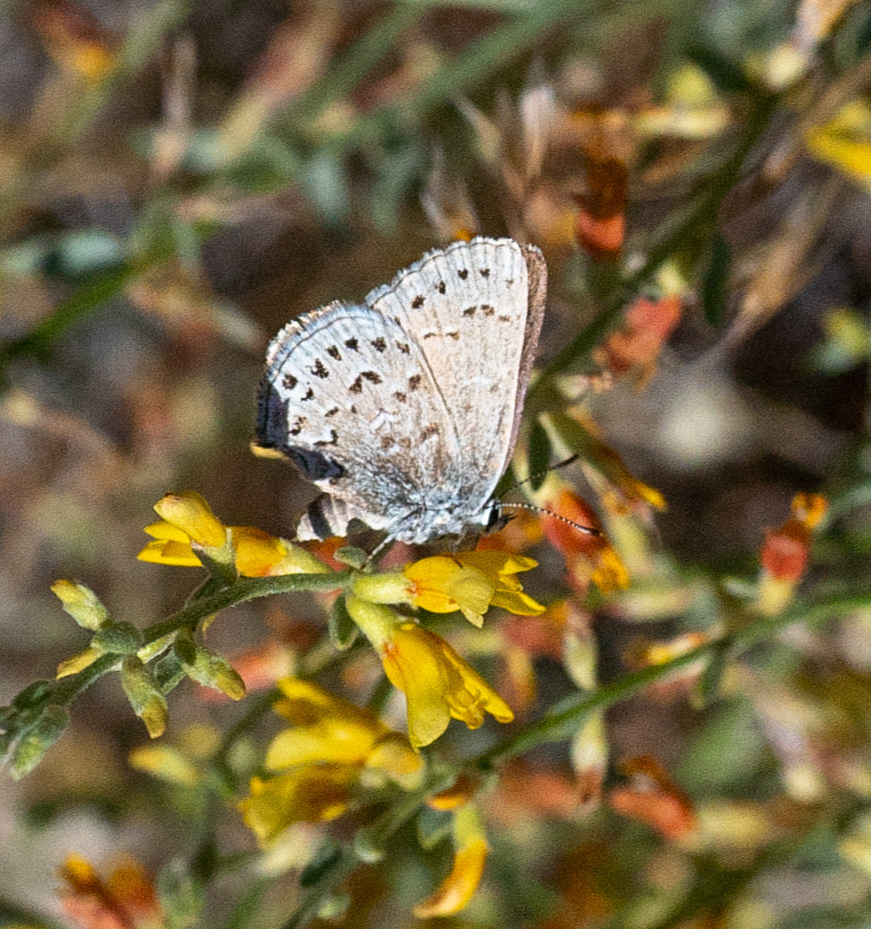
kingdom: Animalia
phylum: Arthropoda
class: Insecta
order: Lepidoptera
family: Lycaenidae
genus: Satyrium
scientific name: Satyrium behrii
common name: Behr's hairstreak
